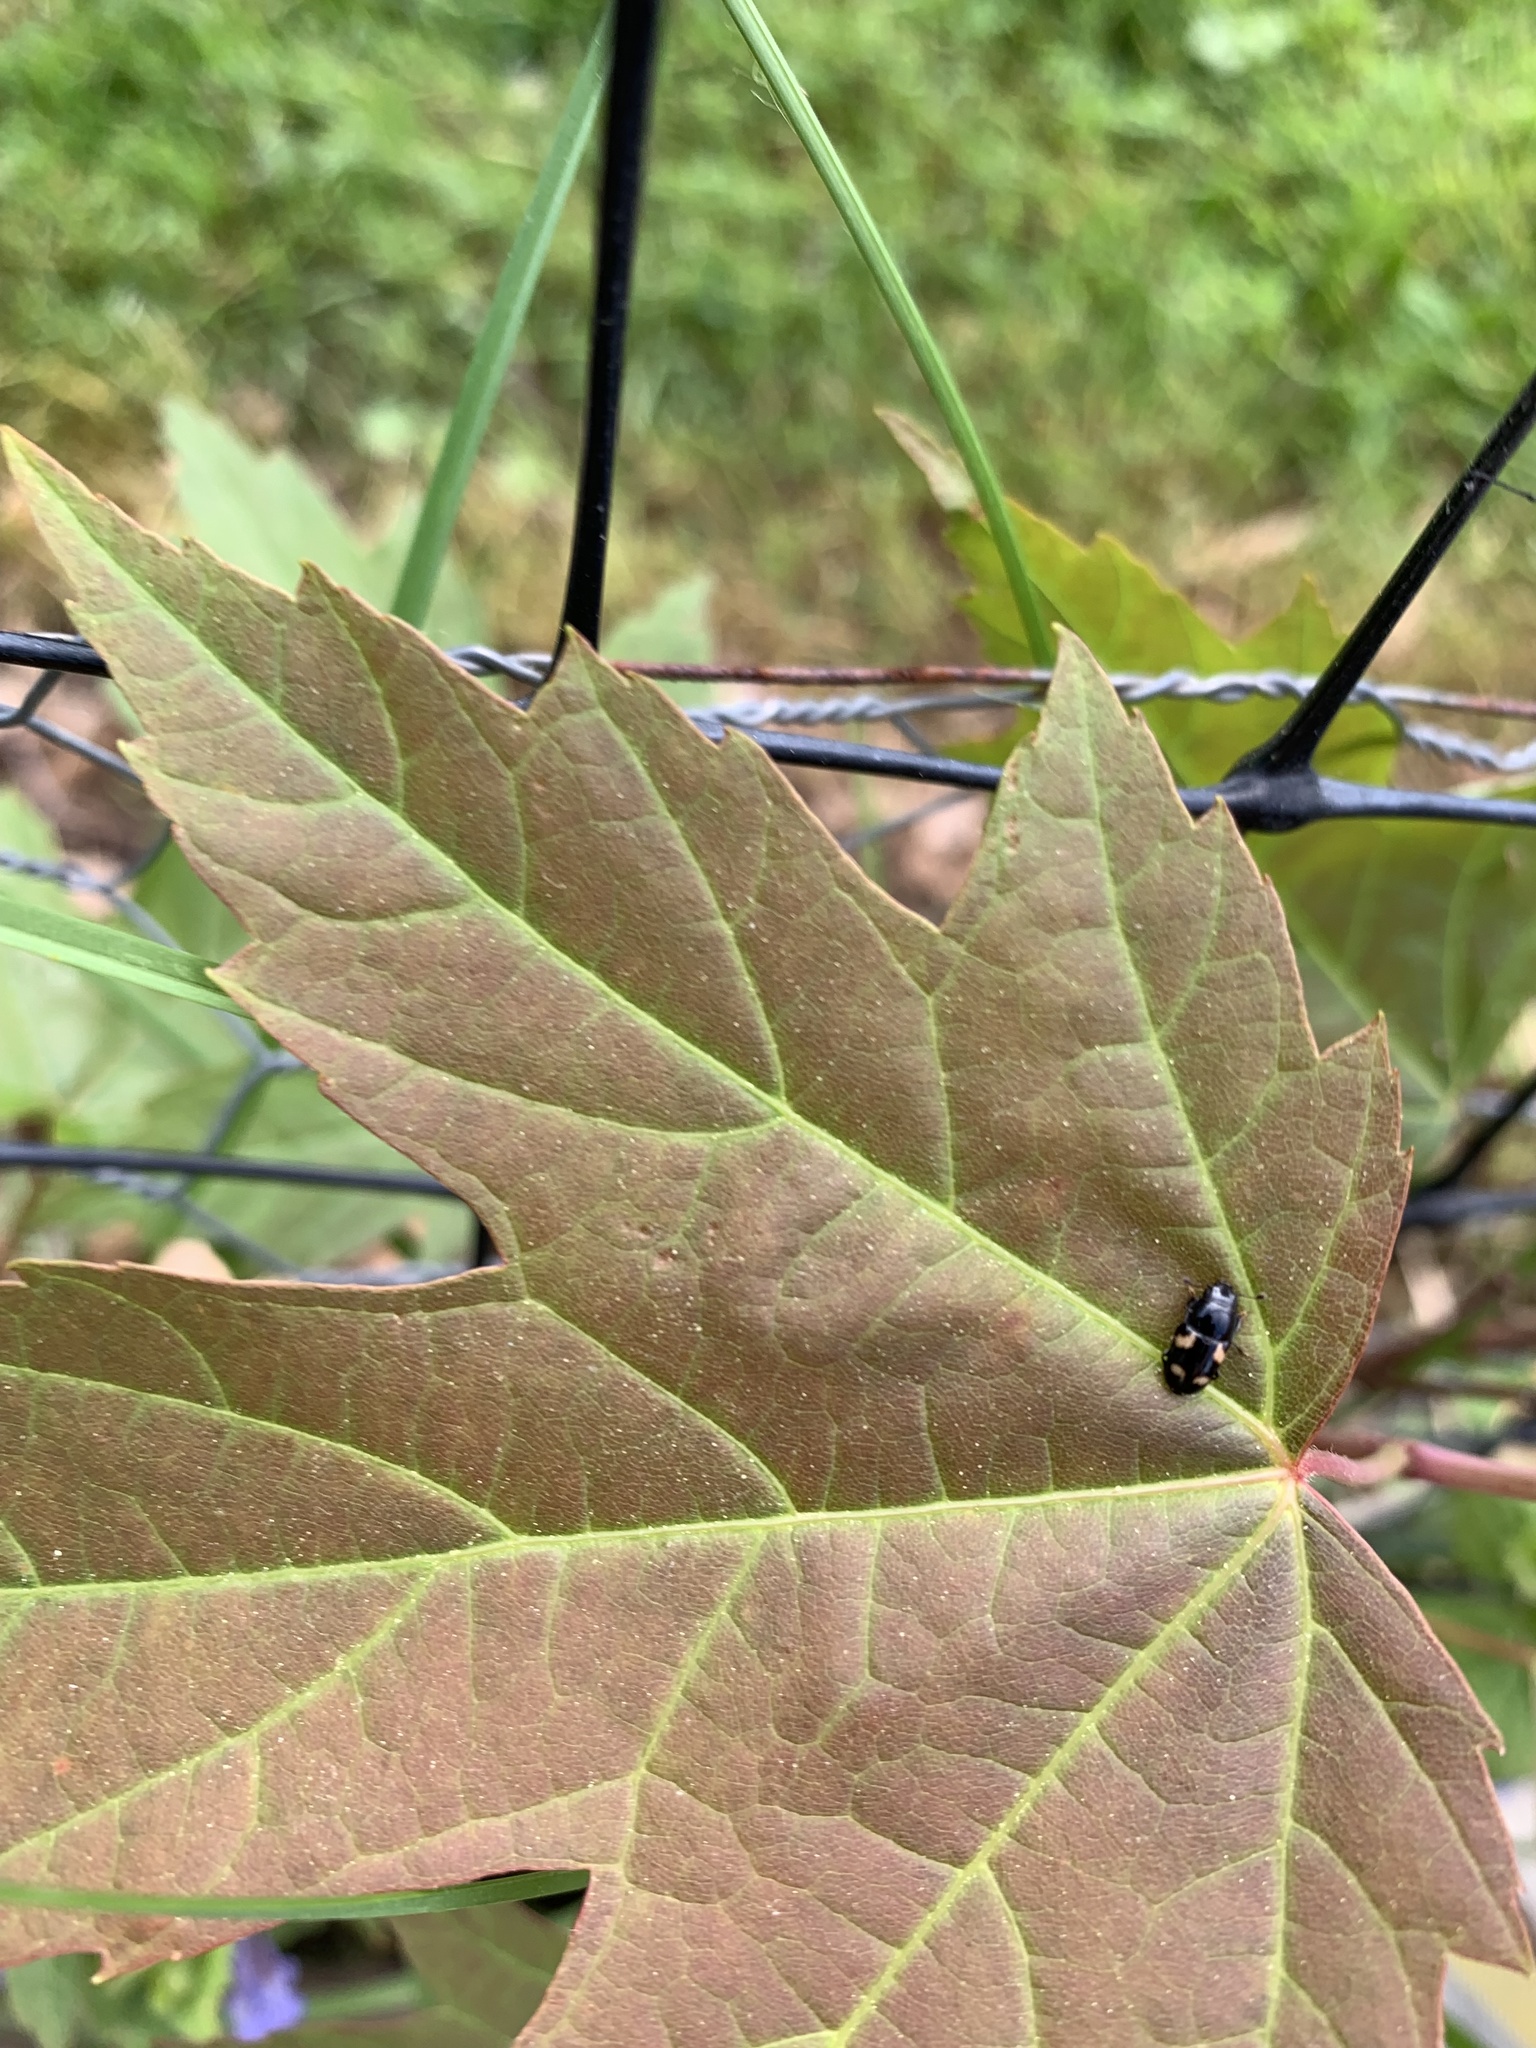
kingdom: Animalia
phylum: Arthropoda
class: Insecta
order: Coleoptera
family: Nitidulidae
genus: Glischrochilus
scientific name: Glischrochilus quadrisignatus
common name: Picnic beetle
